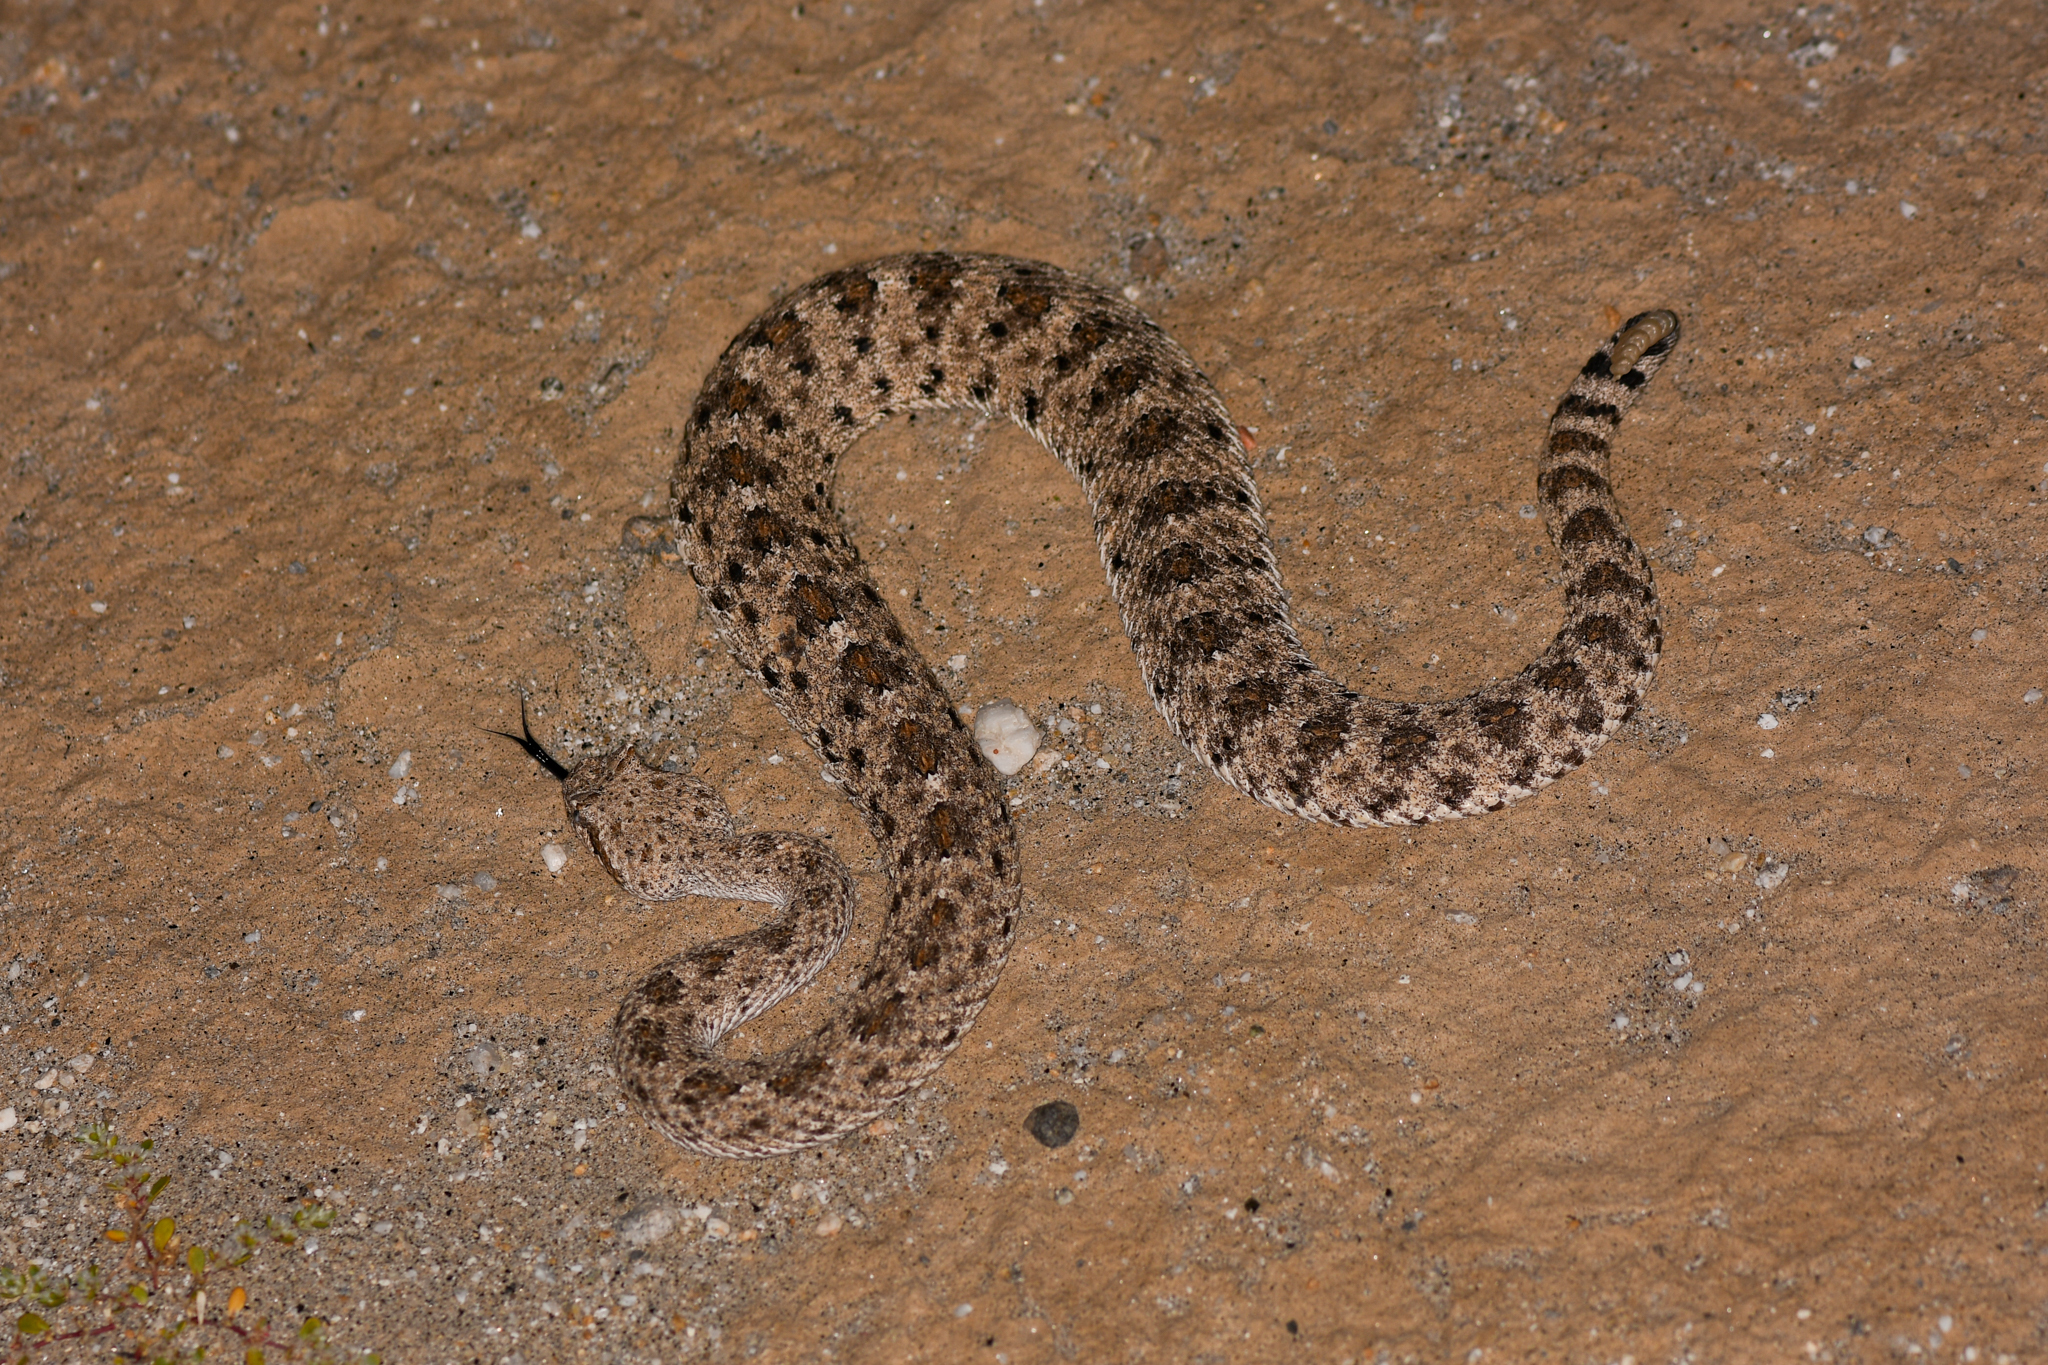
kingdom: Animalia
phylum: Chordata
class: Squamata
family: Viperidae
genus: Crotalus
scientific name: Crotalus cerastes
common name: Sidewinder
